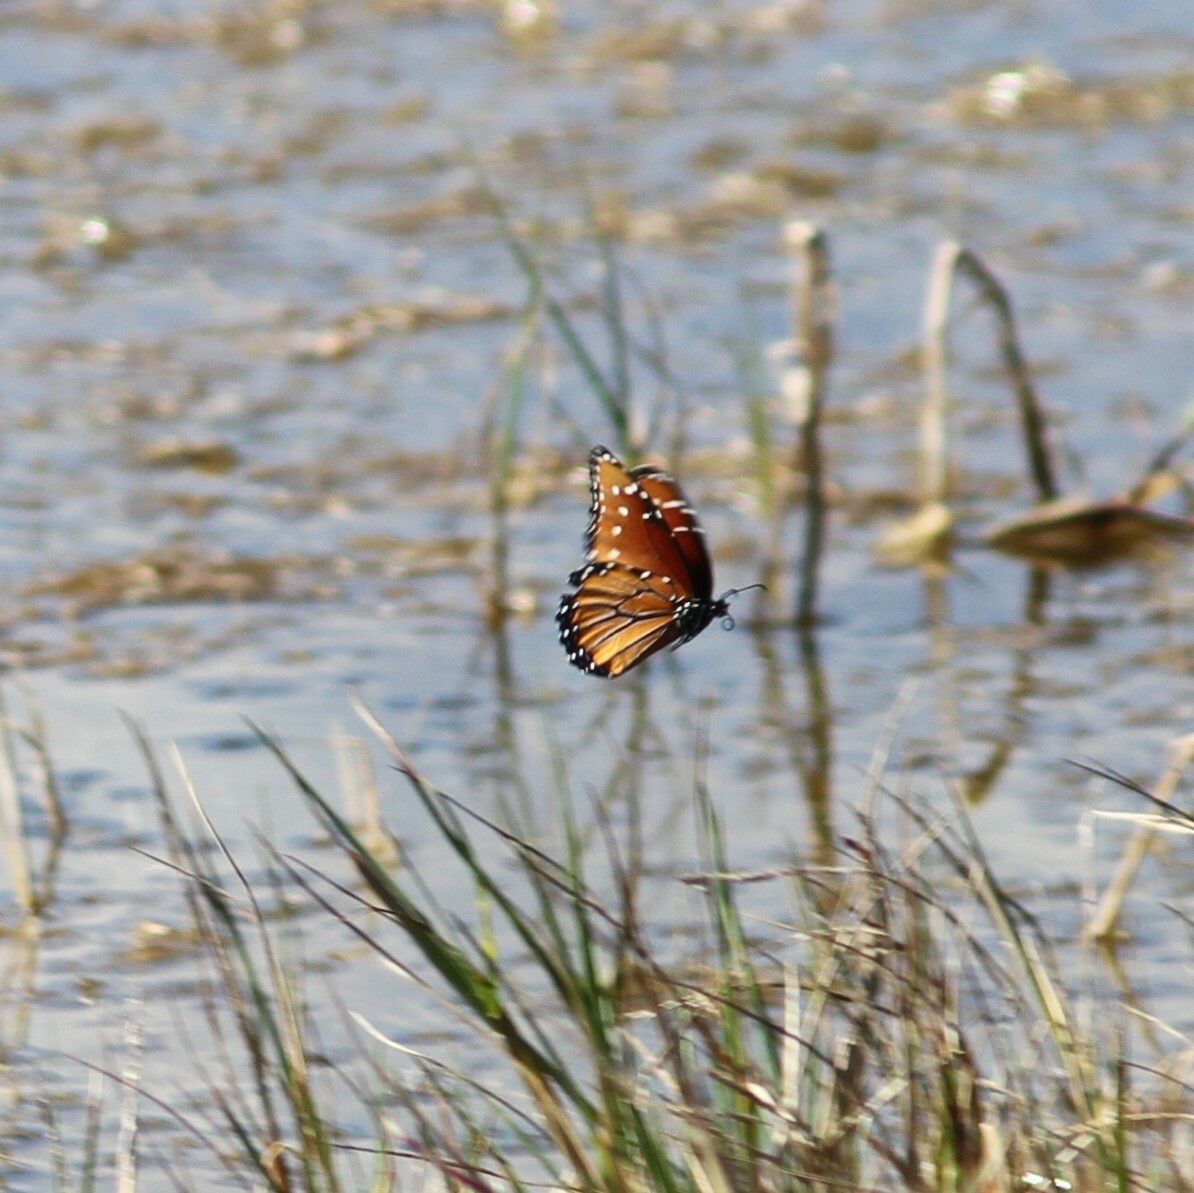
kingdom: Animalia
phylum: Arthropoda
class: Insecta
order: Lepidoptera
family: Nymphalidae
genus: Danaus
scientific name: Danaus gilippus
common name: Queen
